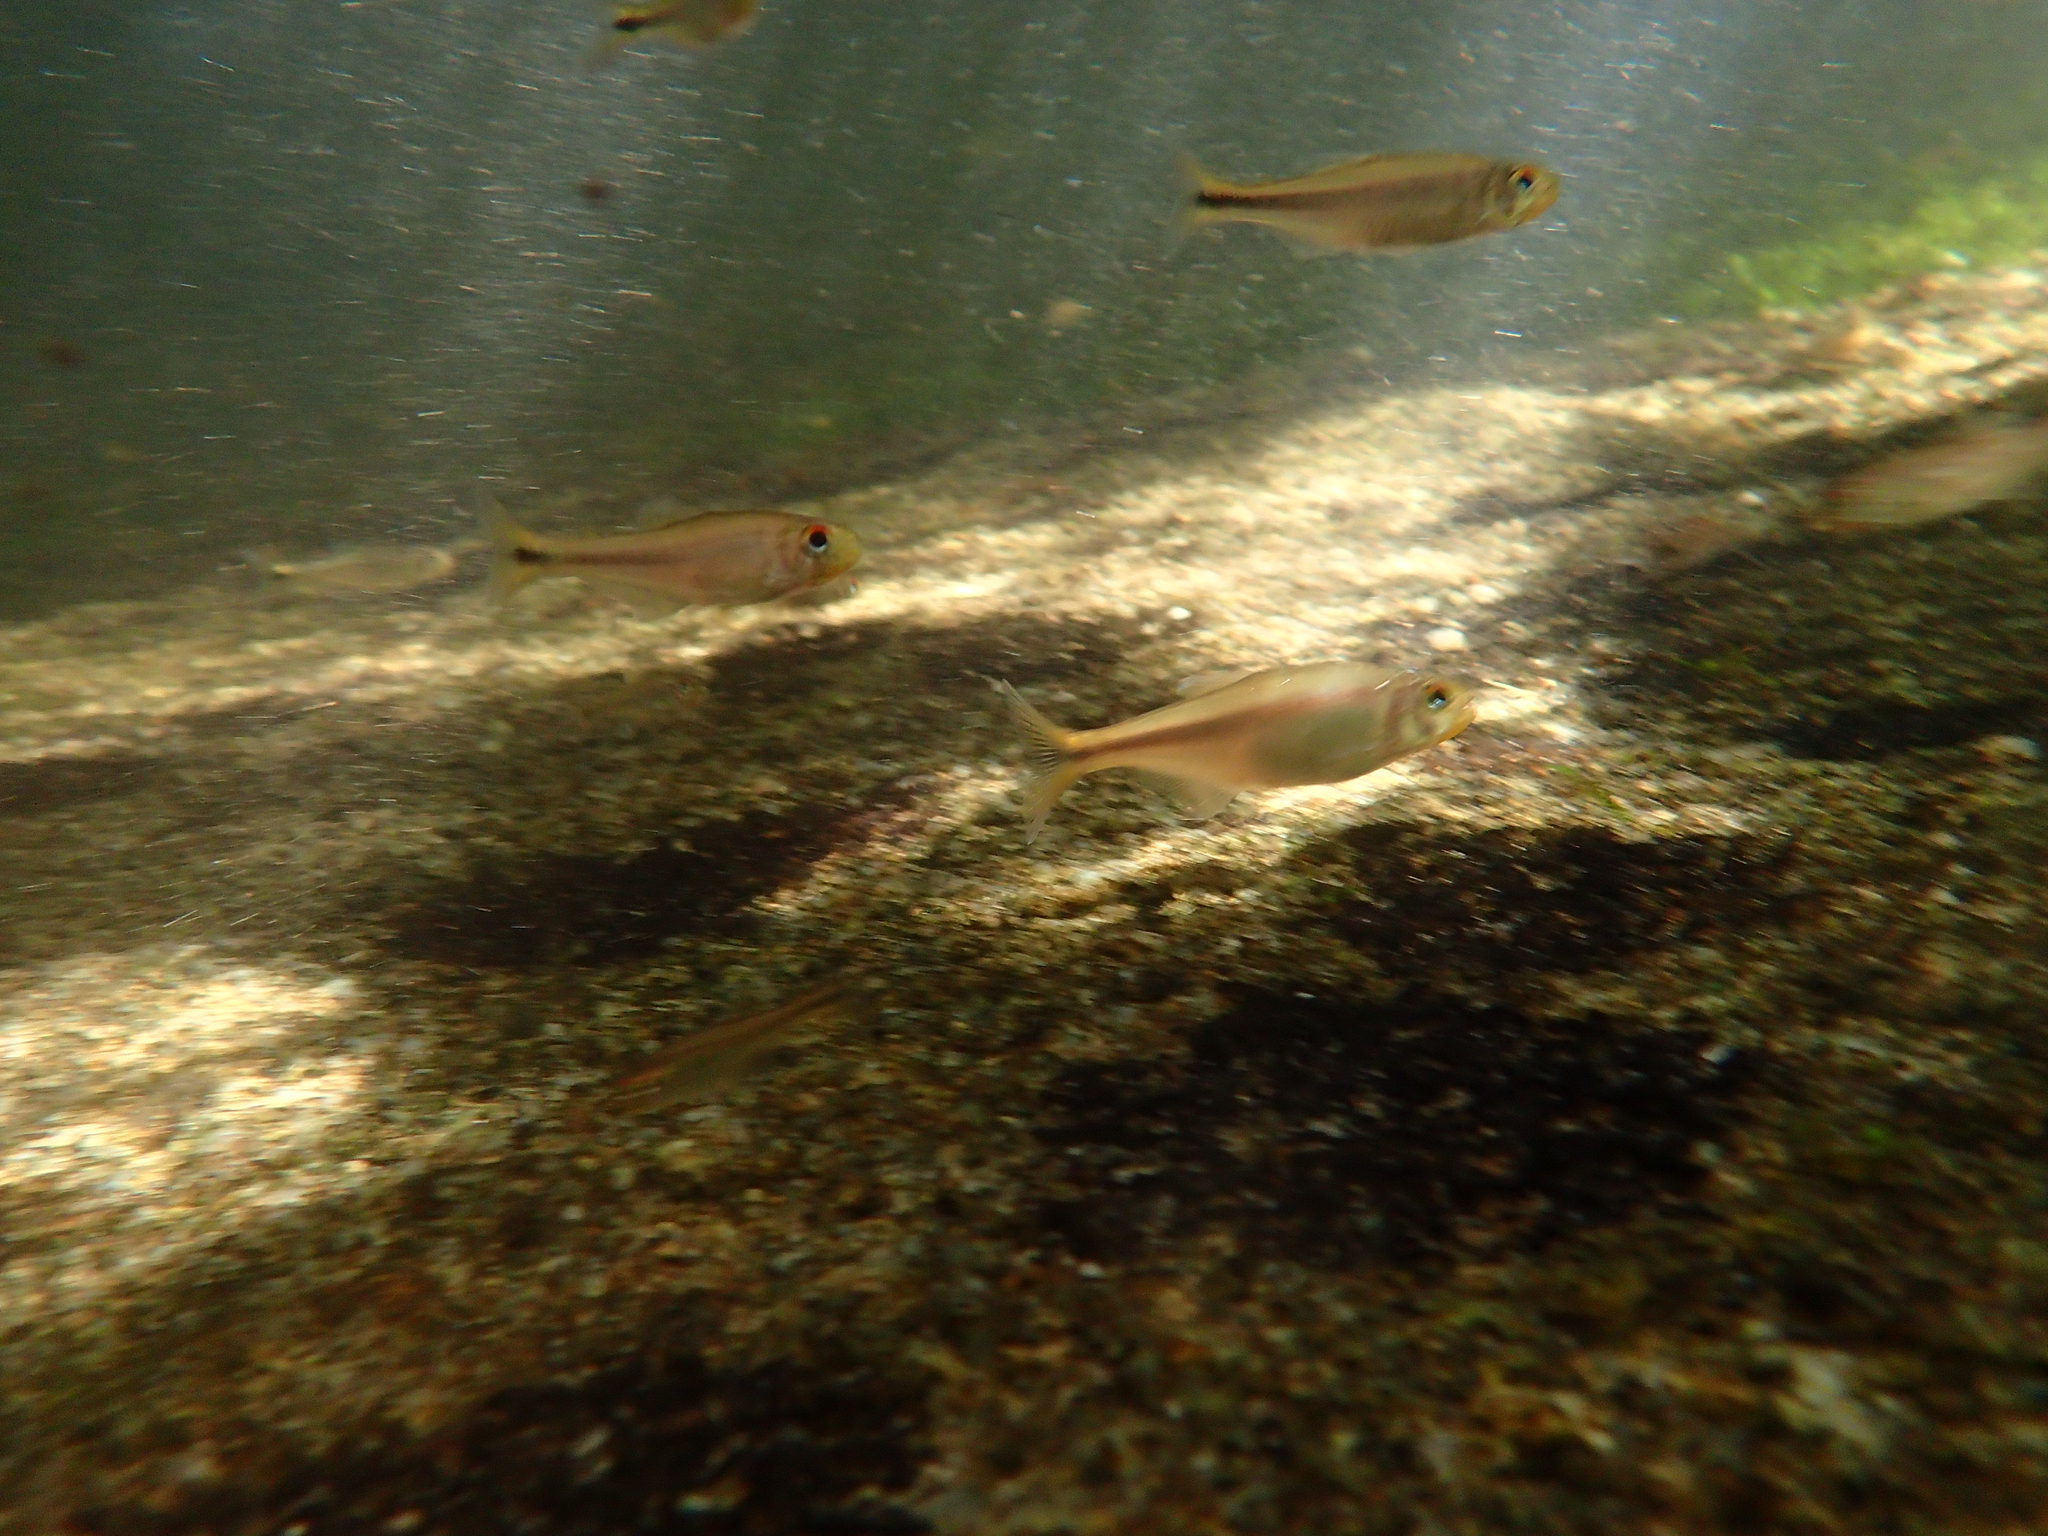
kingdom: Animalia
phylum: Chordata
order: Characiformes
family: Characidae
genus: Bryconamericus
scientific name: Bryconamericus guyanensis
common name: Tetra
